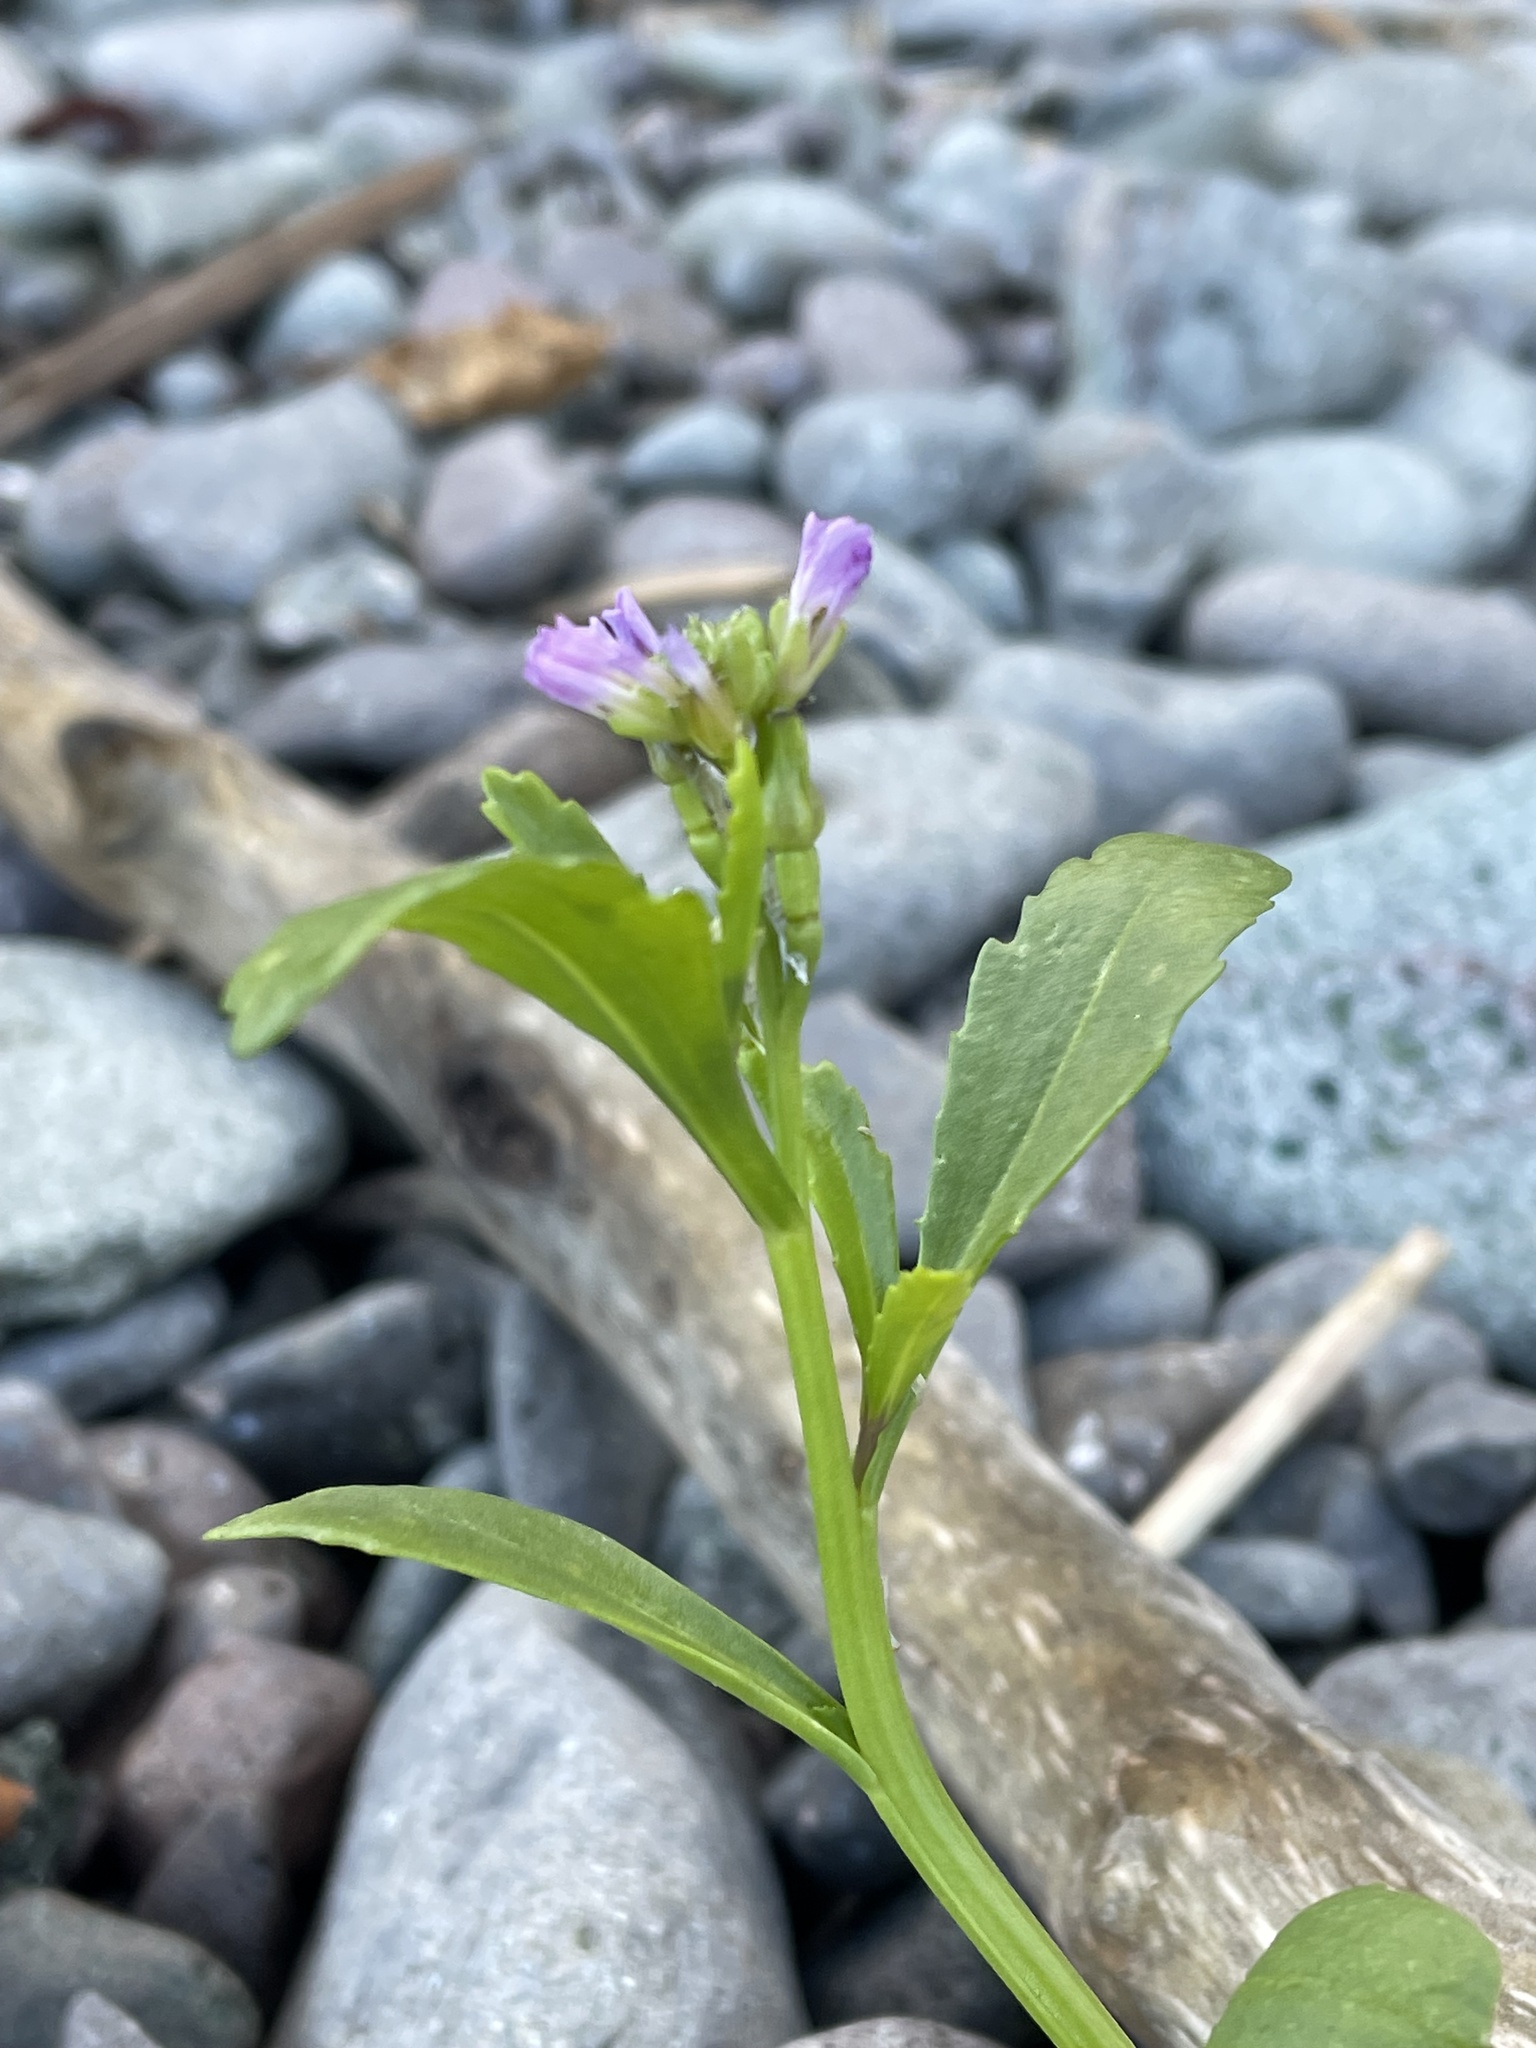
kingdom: Plantae
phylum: Tracheophyta
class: Magnoliopsida
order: Brassicales
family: Brassicaceae
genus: Cakile
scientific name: Cakile edentula
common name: American sea rocket
